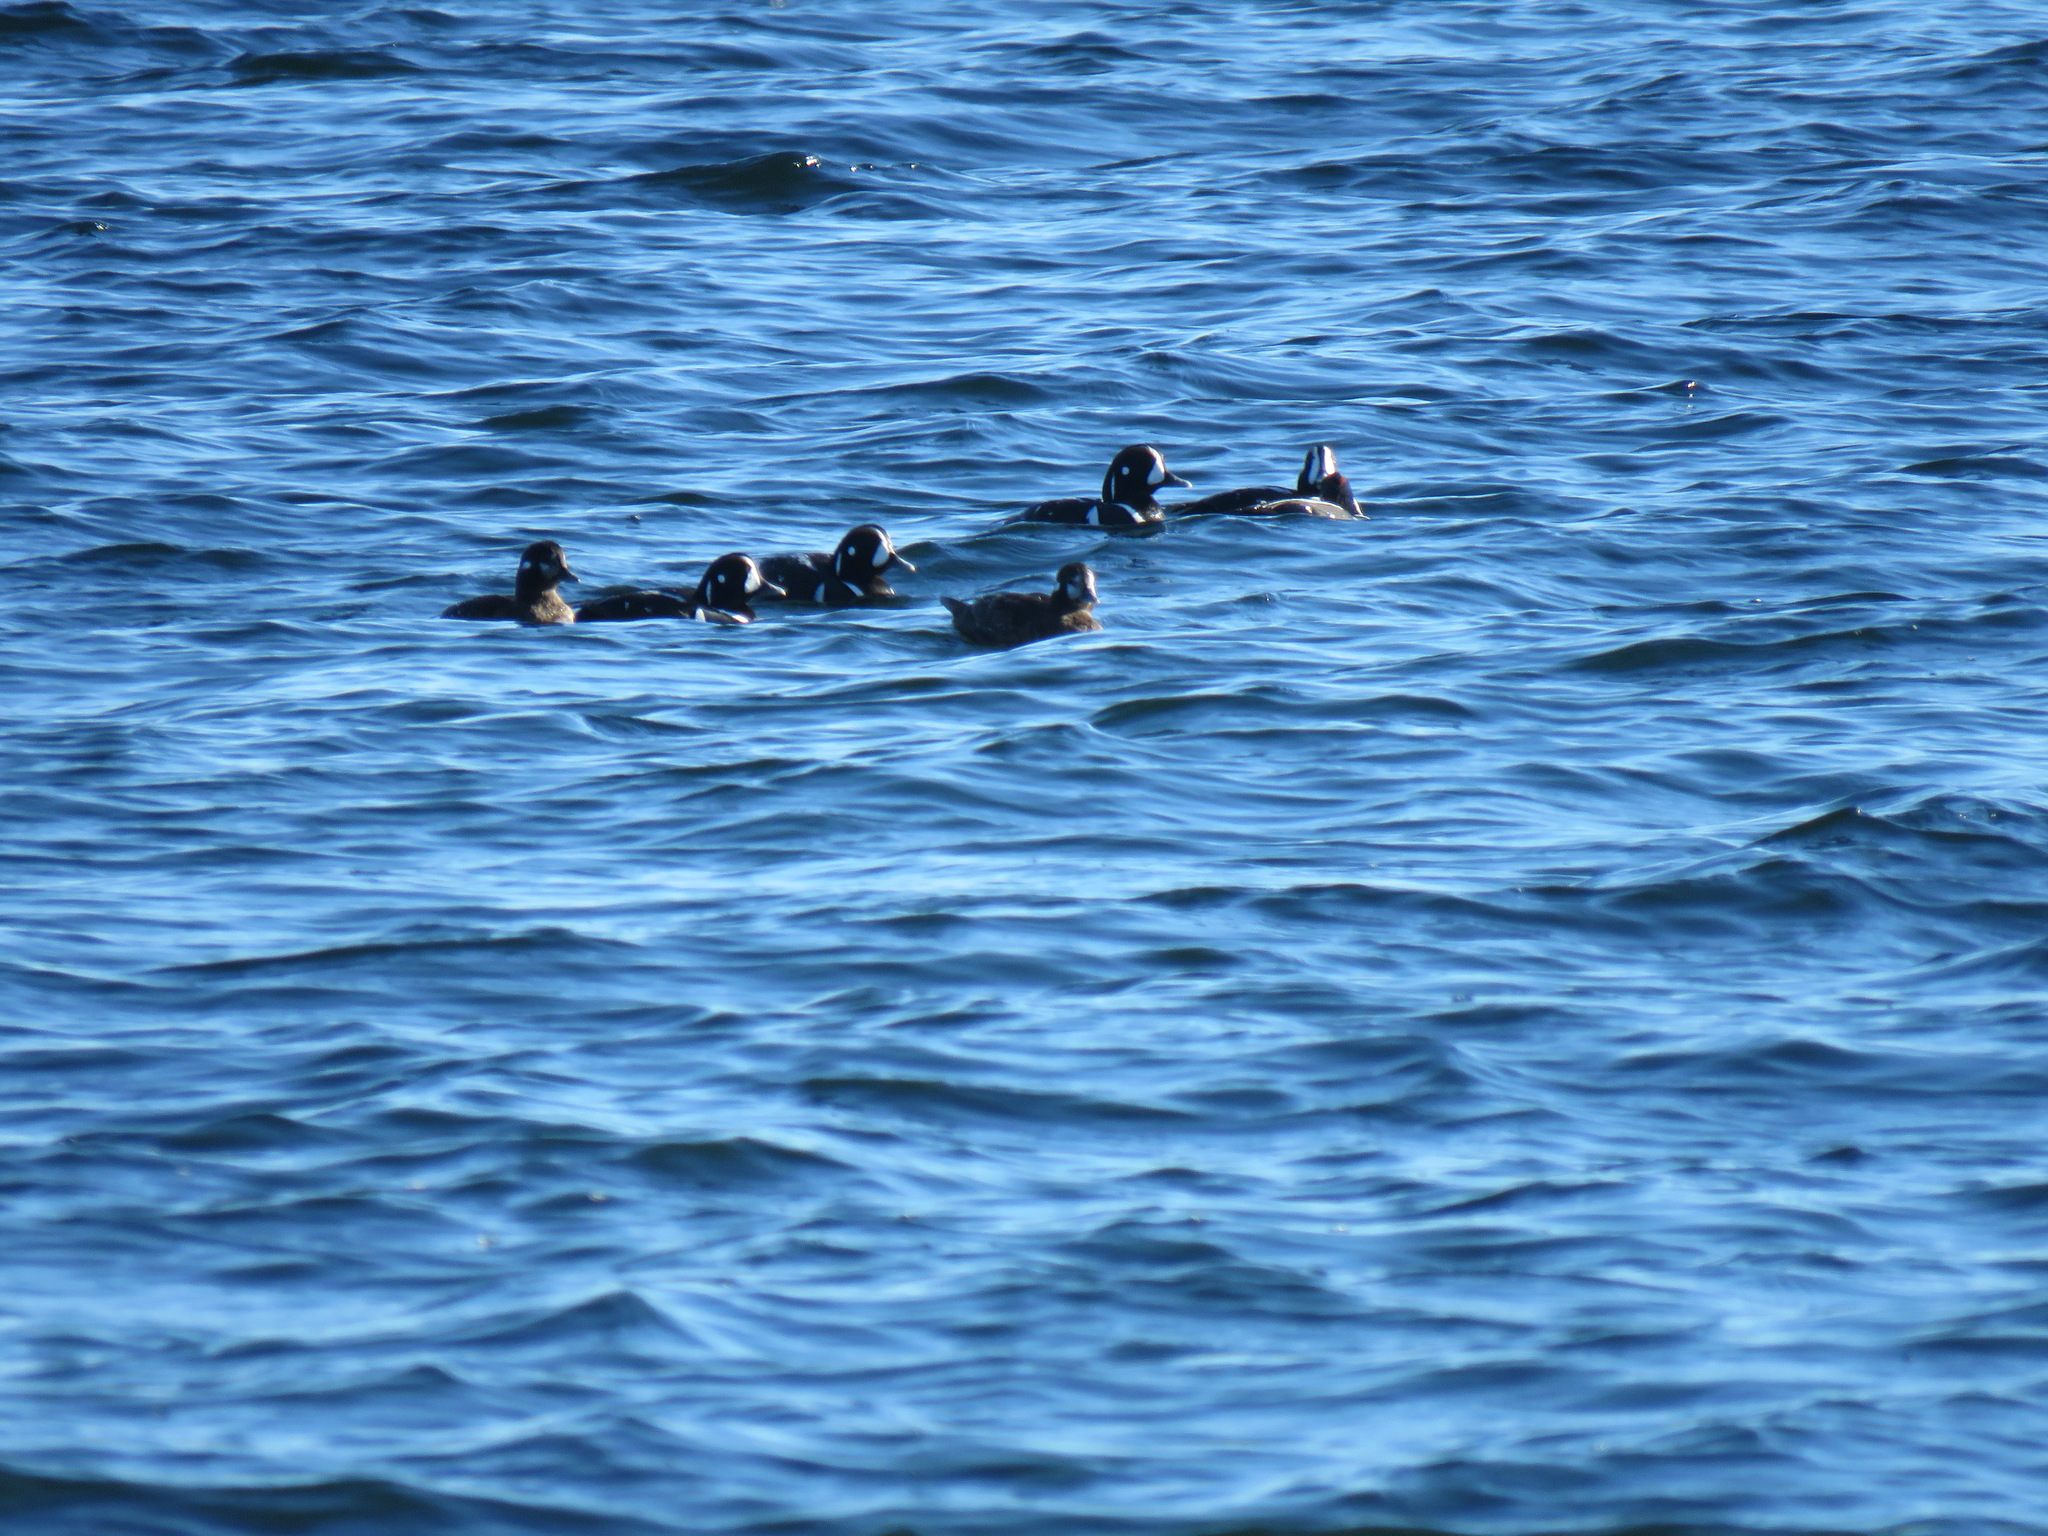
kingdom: Animalia
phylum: Chordata
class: Aves
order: Anseriformes
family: Anatidae
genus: Histrionicus
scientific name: Histrionicus histrionicus
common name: Harlequin duck
